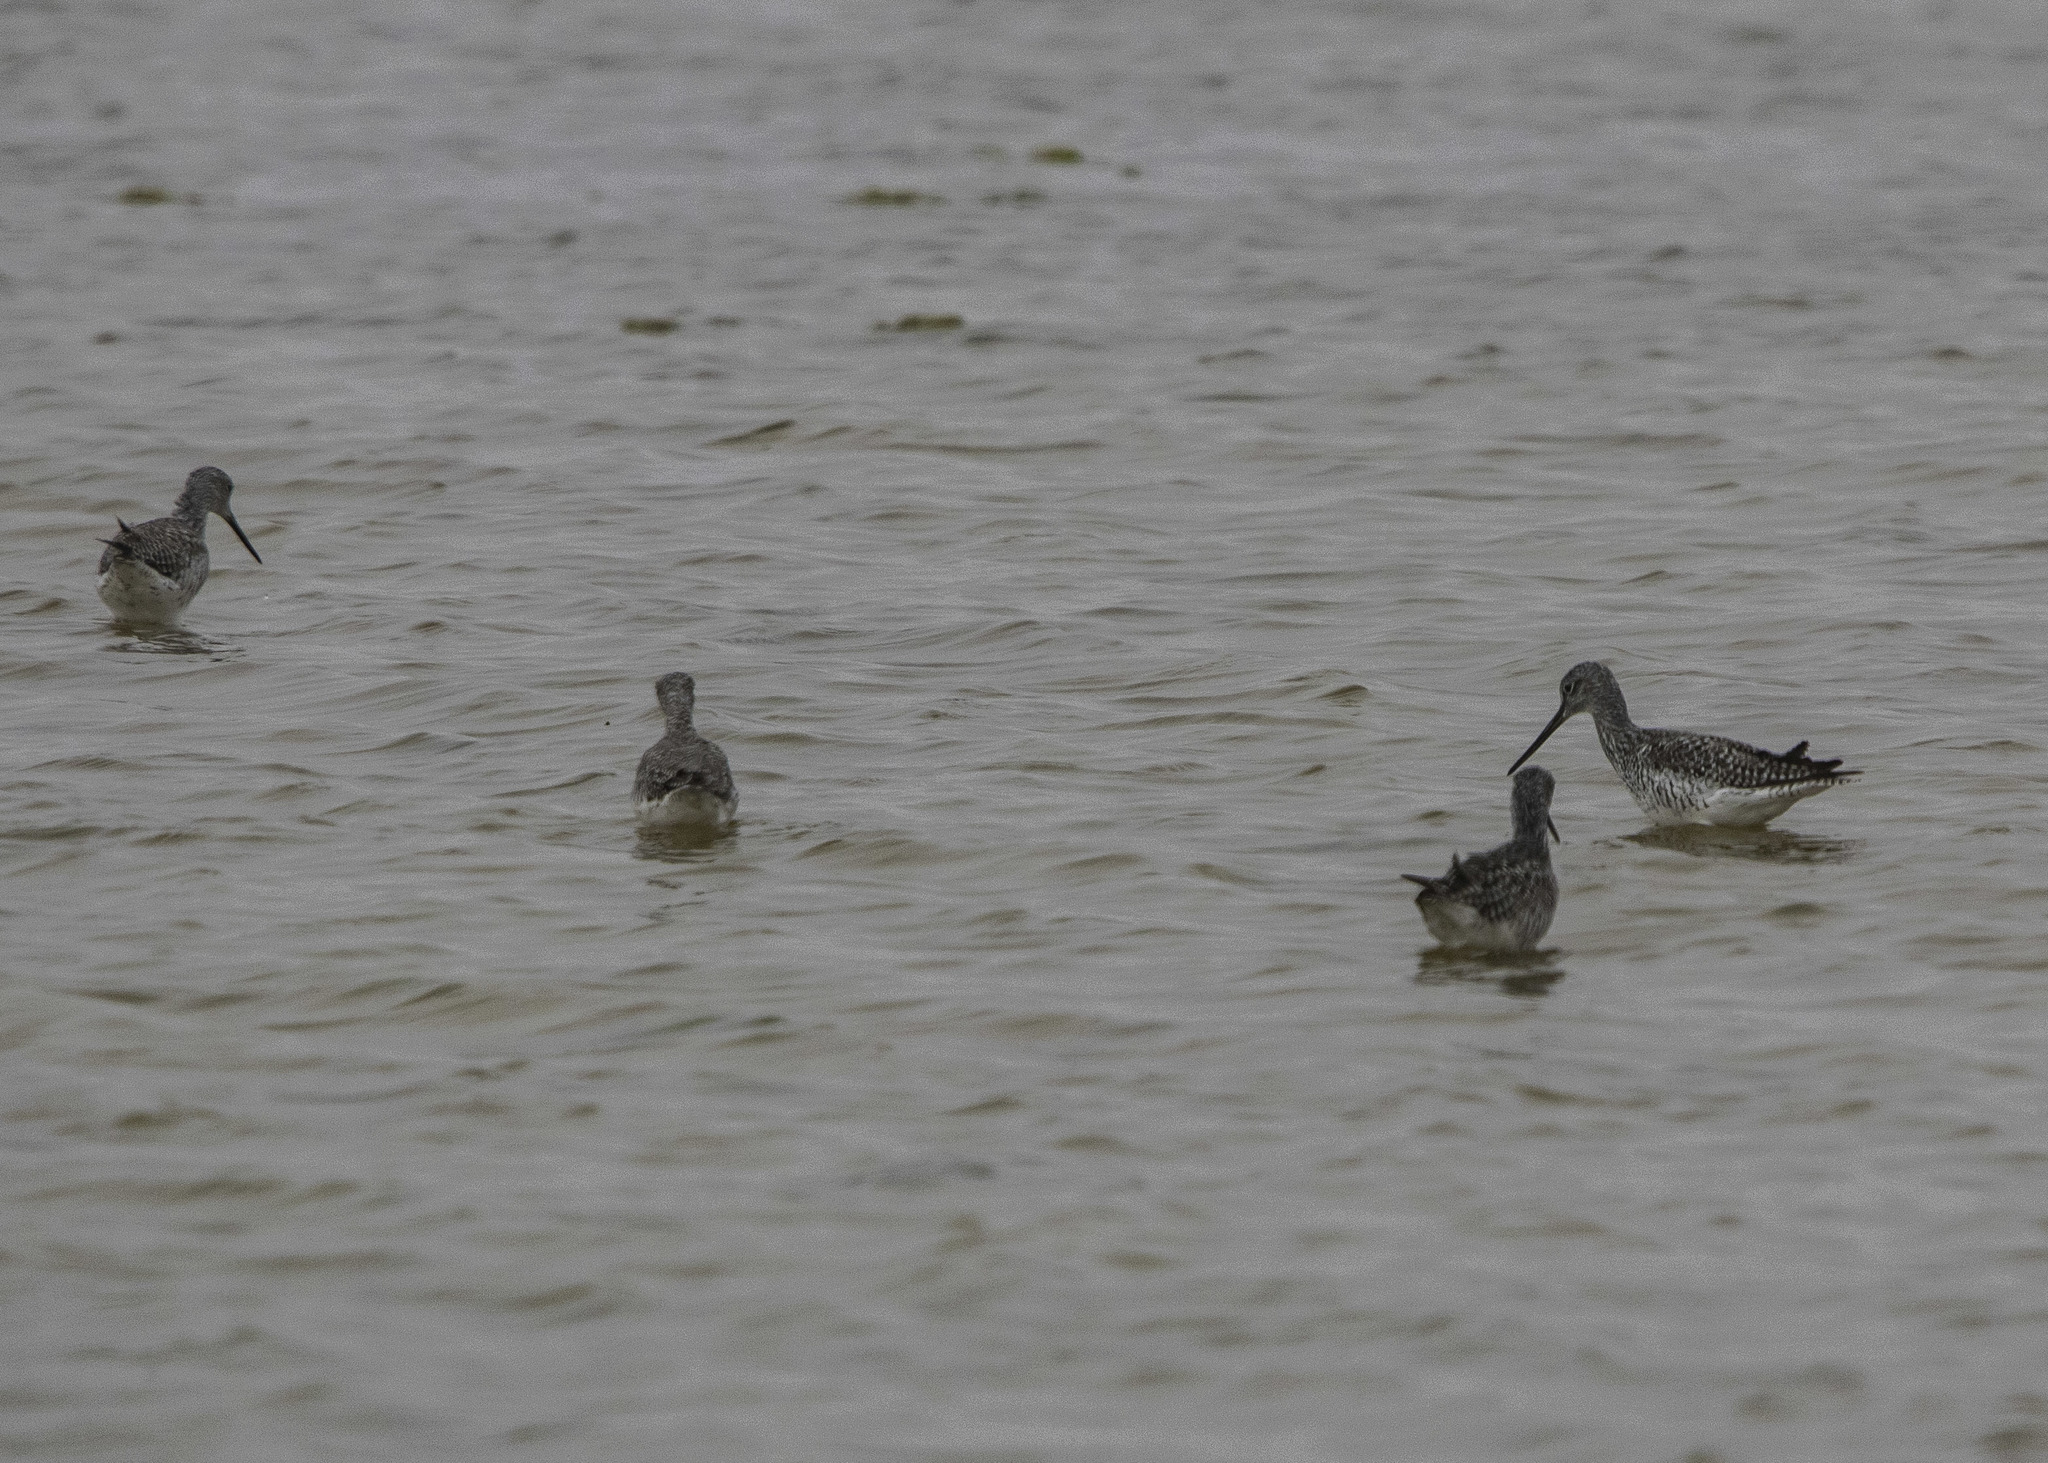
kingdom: Animalia
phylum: Chordata
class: Aves
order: Charadriiformes
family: Scolopacidae
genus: Tringa
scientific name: Tringa melanoleuca
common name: Greater yellowlegs
